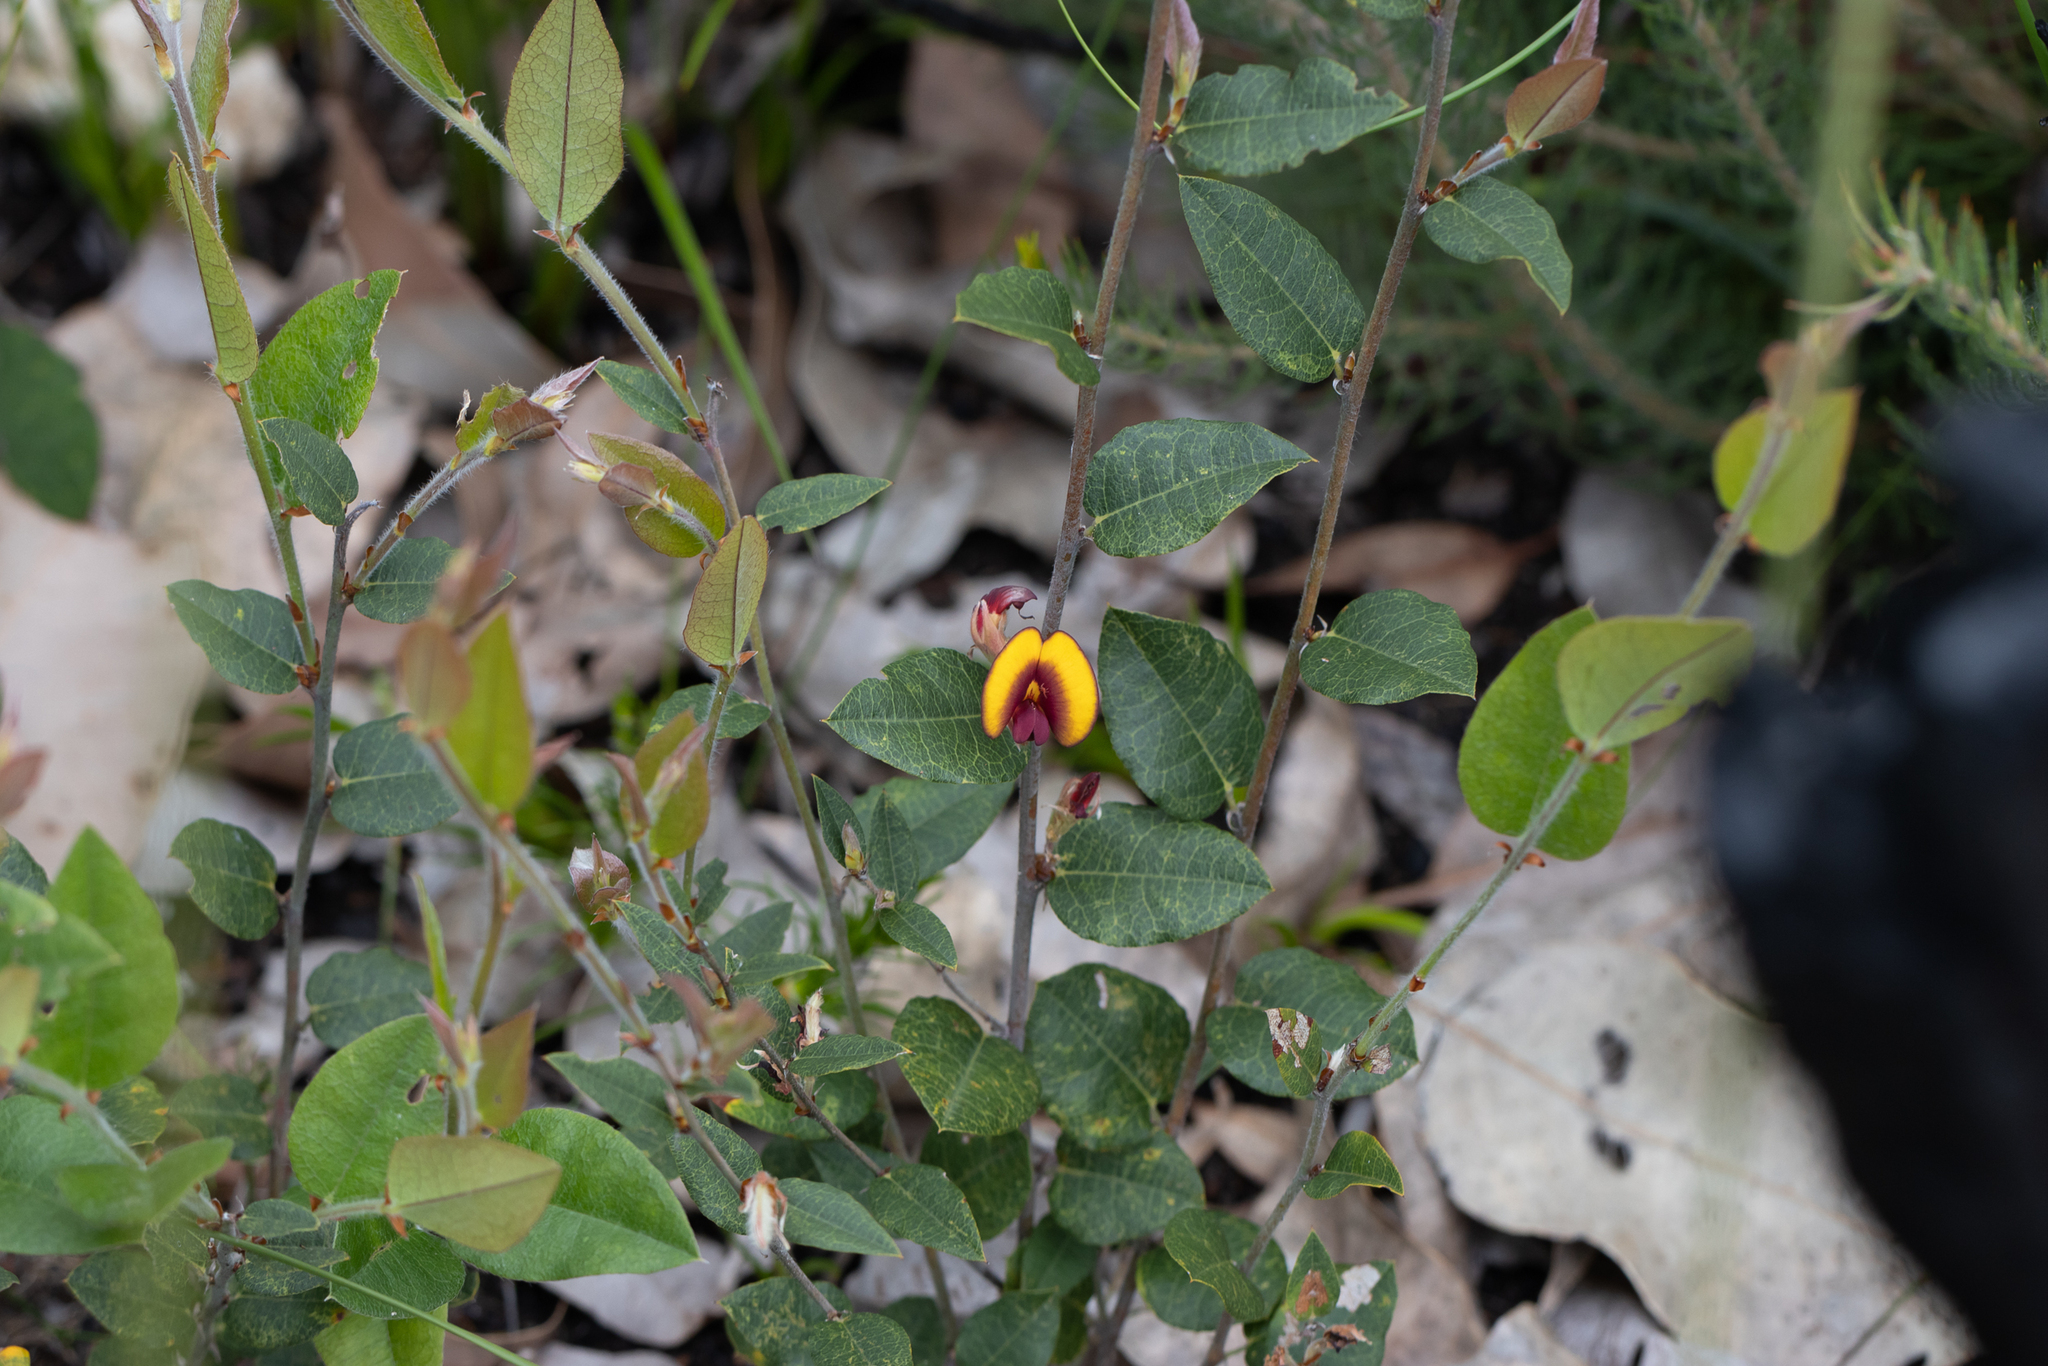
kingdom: Plantae
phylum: Tracheophyta
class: Magnoliopsida
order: Fabales
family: Fabaceae
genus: Bossiaea
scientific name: Bossiaea ornata
